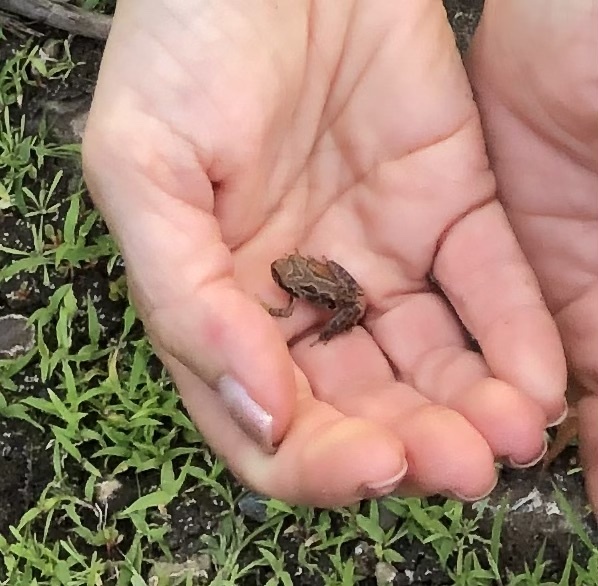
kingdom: Animalia
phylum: Chordata
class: Amphibia
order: Anura
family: Hylidae
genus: Pseudacris
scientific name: Pseudacris regilla
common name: Pacific chorus frog
